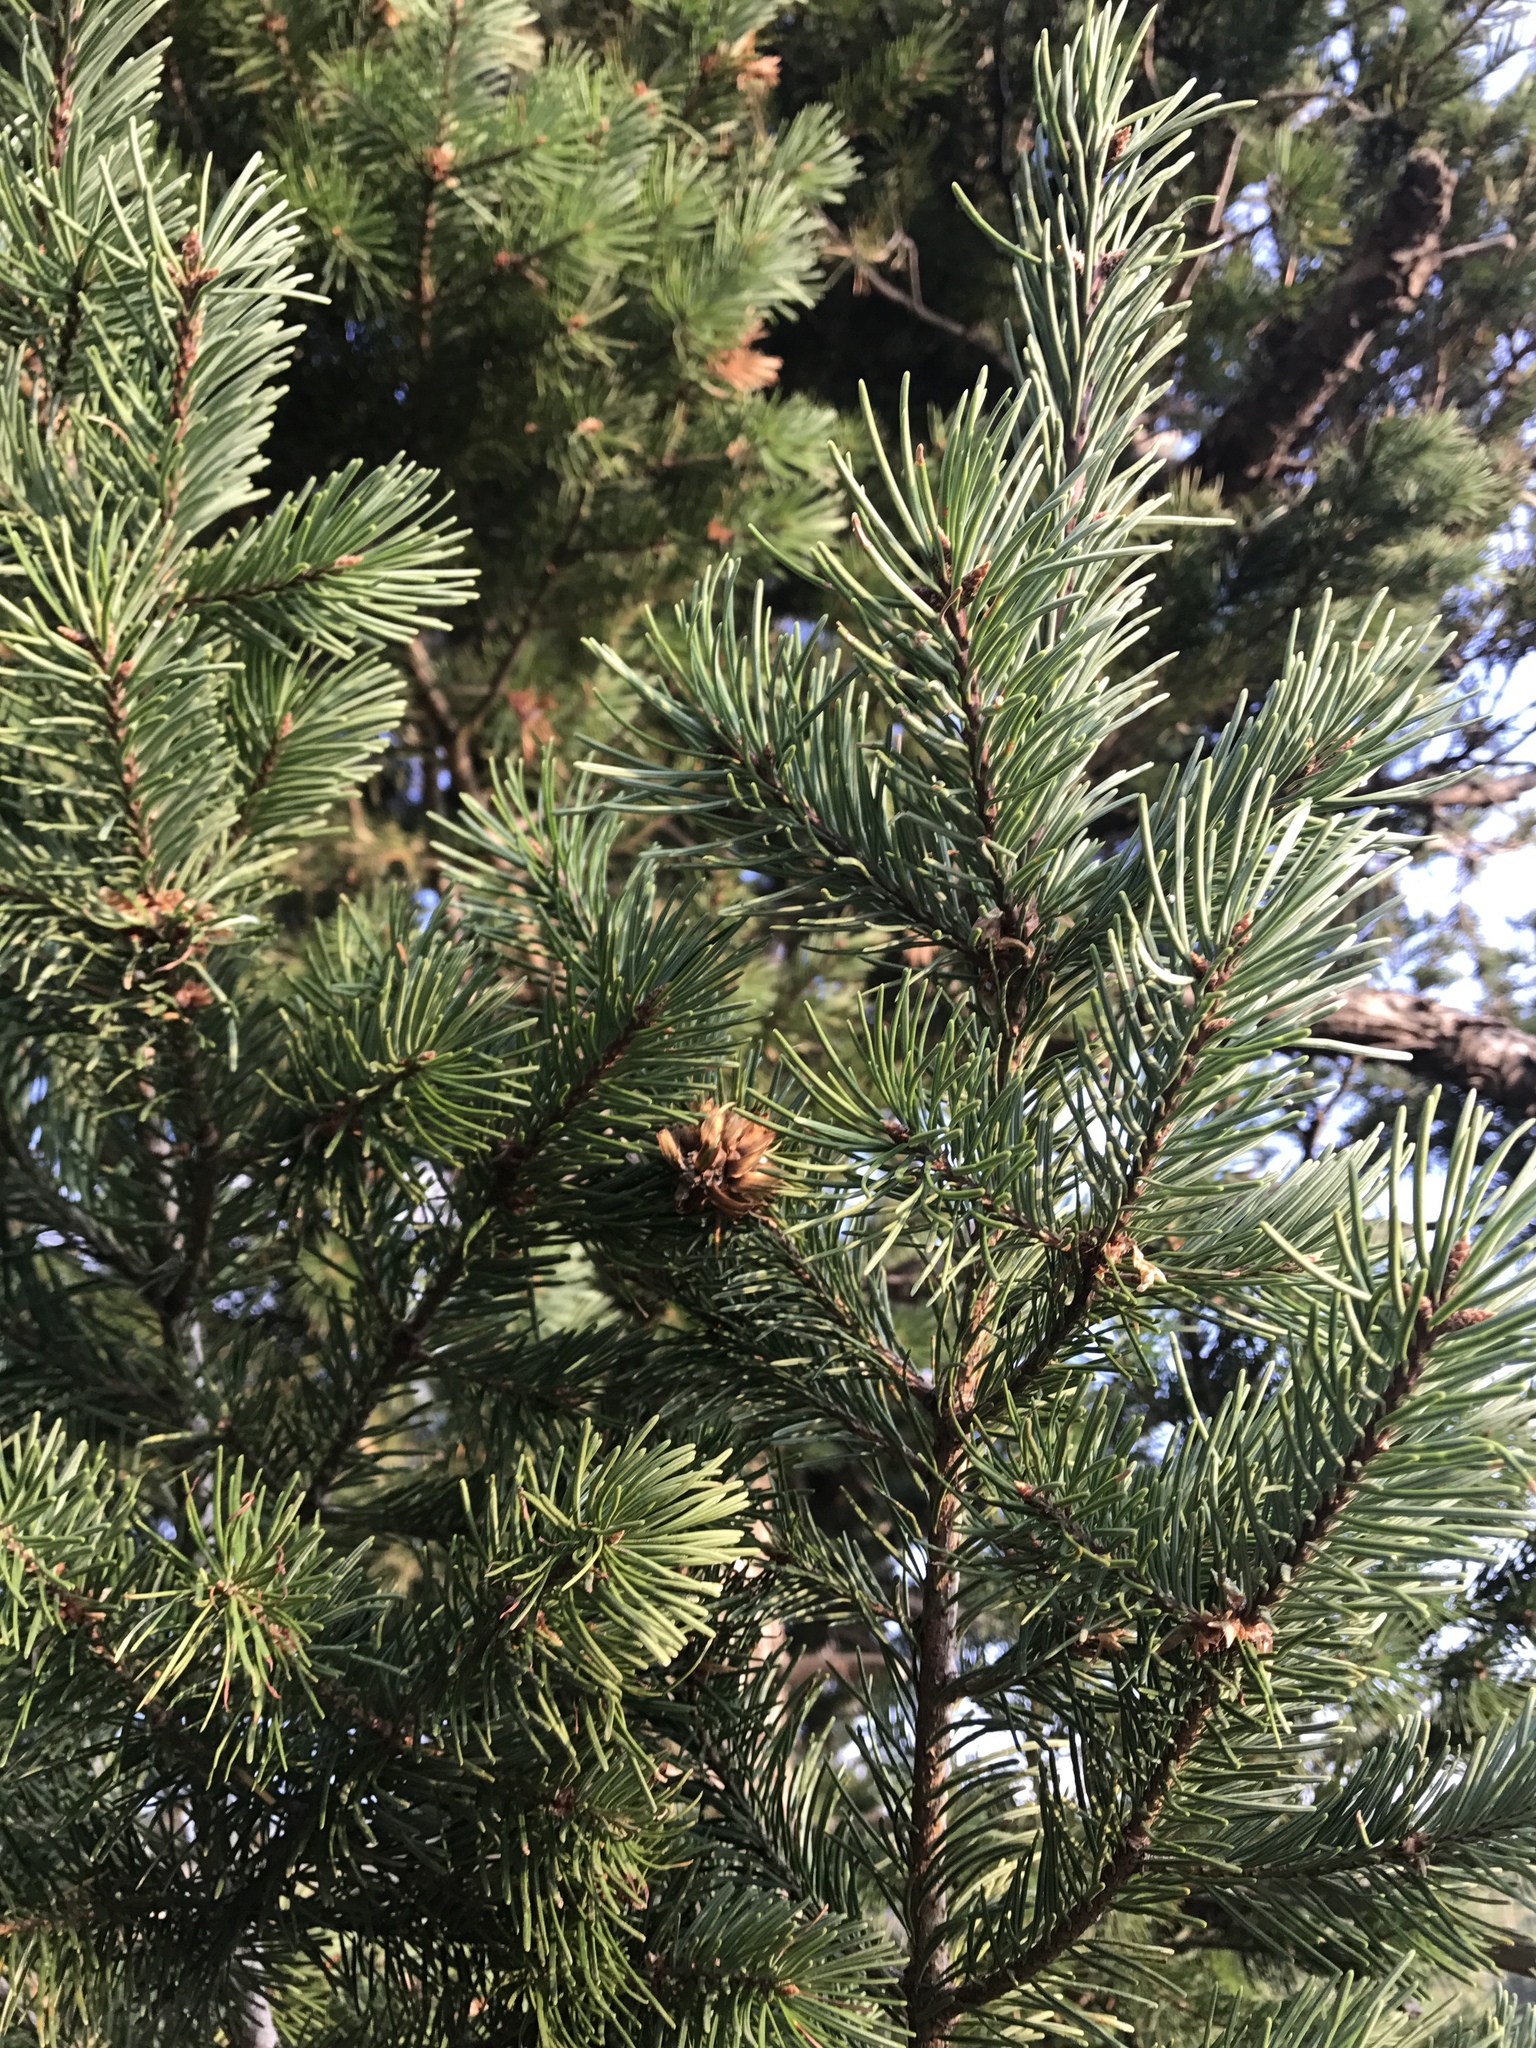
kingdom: Plantae
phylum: Tracheophyta
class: Pinopsida
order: Pinales
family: Pinaceae
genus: Pseudotsuga
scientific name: Pseudotsuga menziesii
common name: Douglas fir
